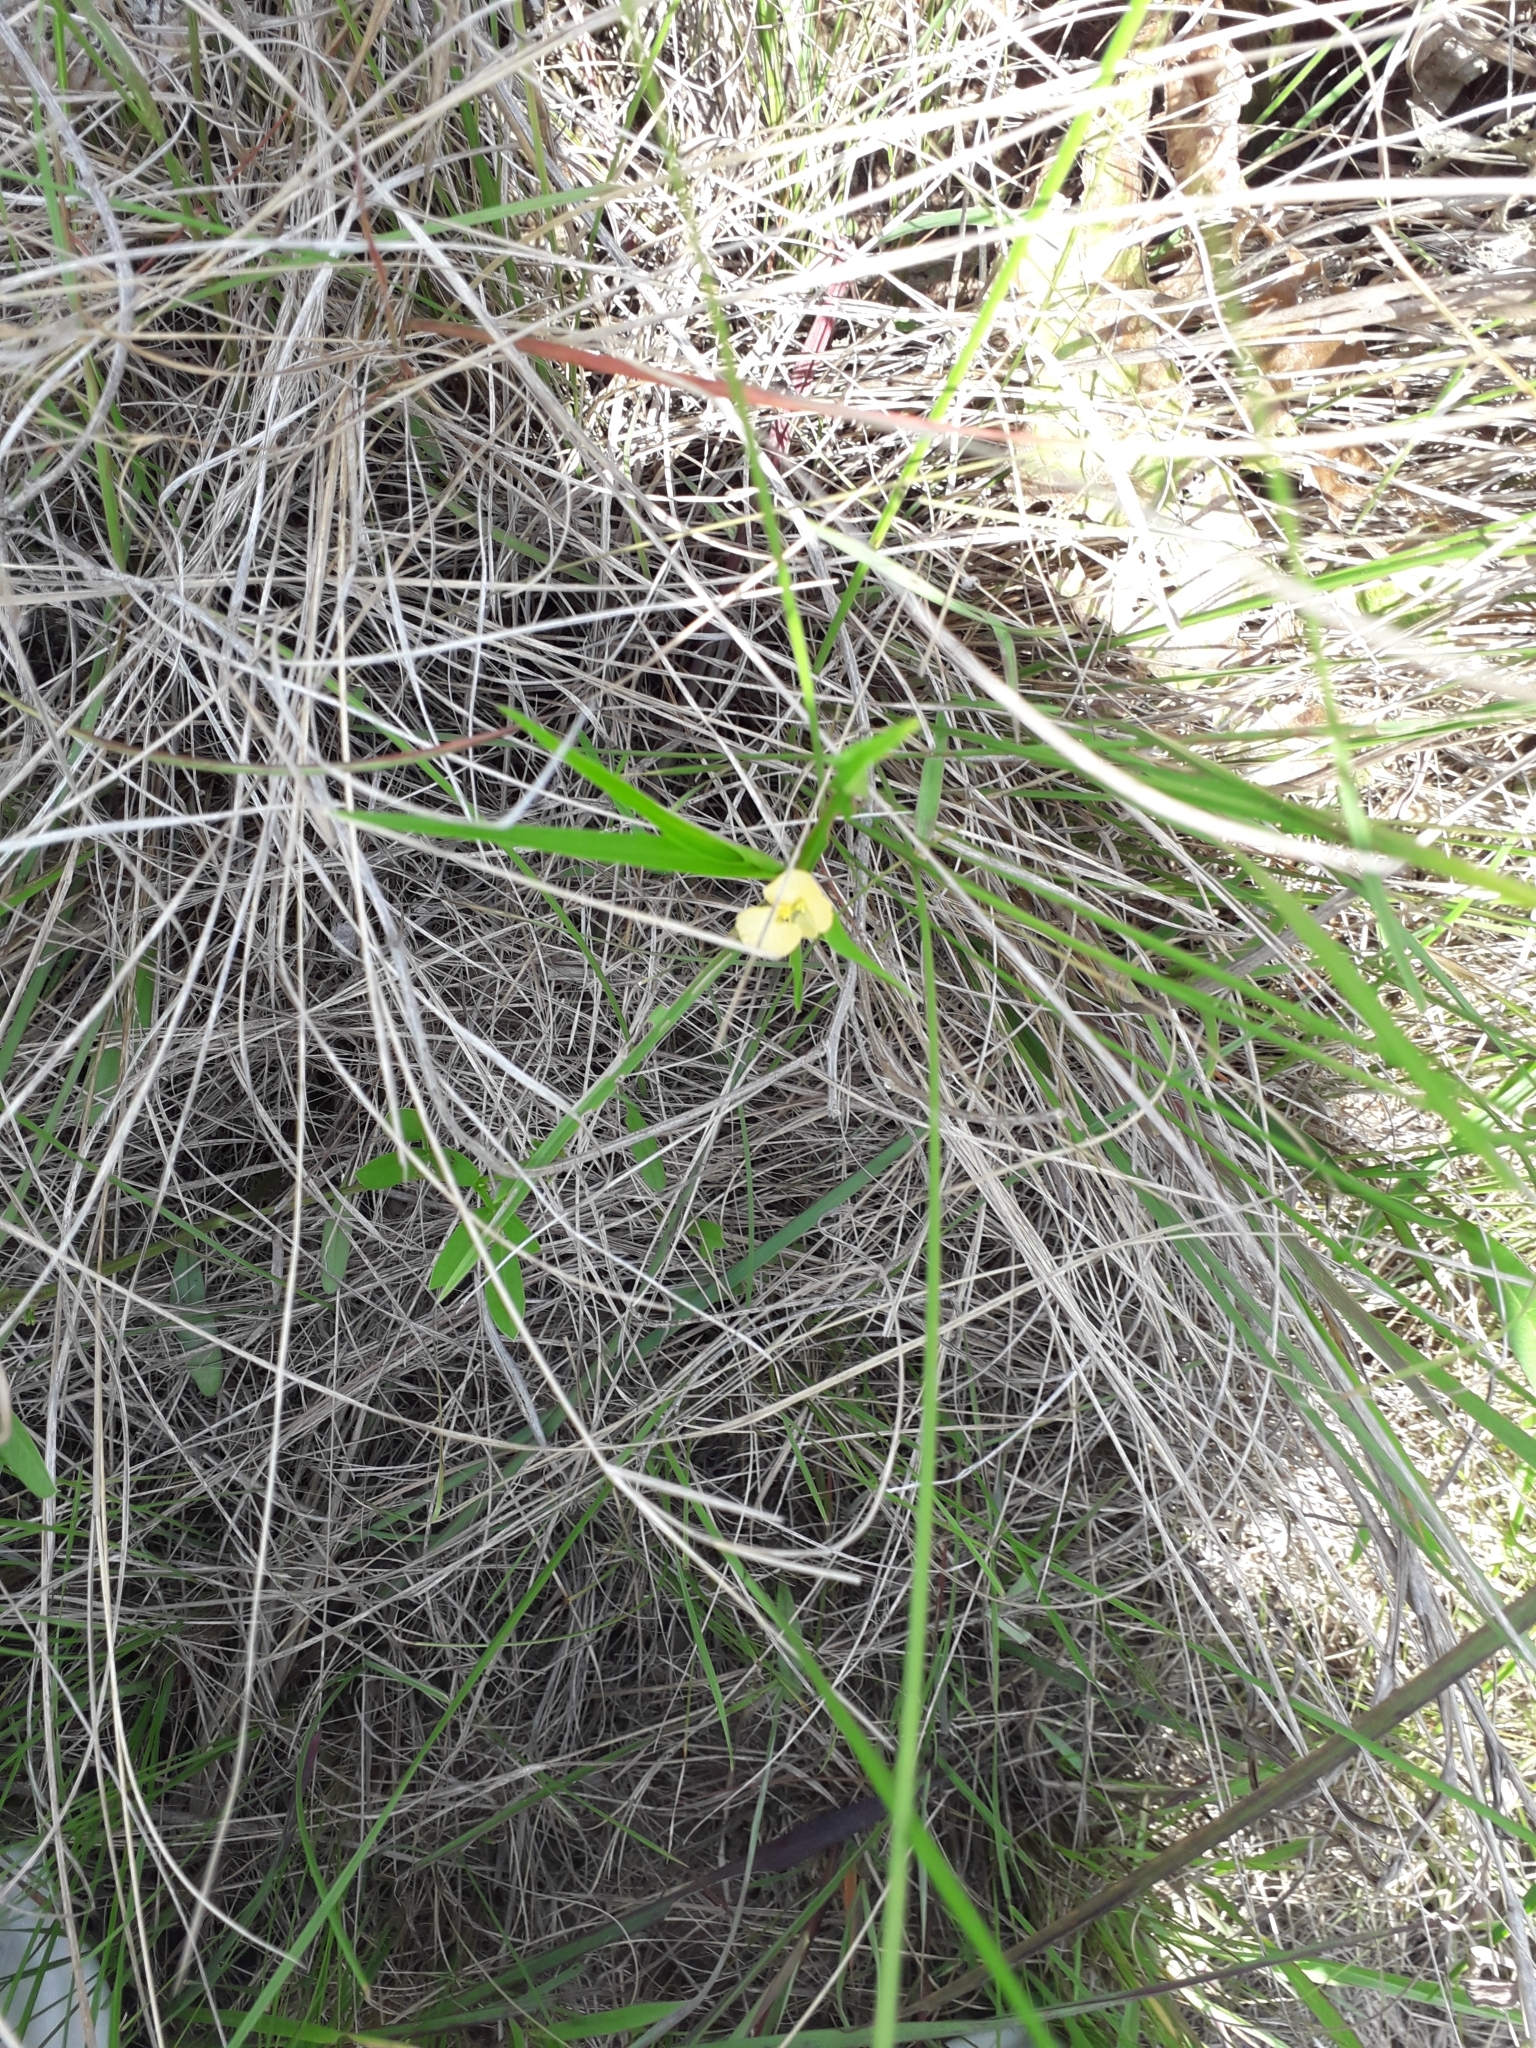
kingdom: Plantae
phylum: Tracheophyta
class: Liliopsida
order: Commelinales
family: Commelinaceae
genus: Commelina
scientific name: Commelina africana
